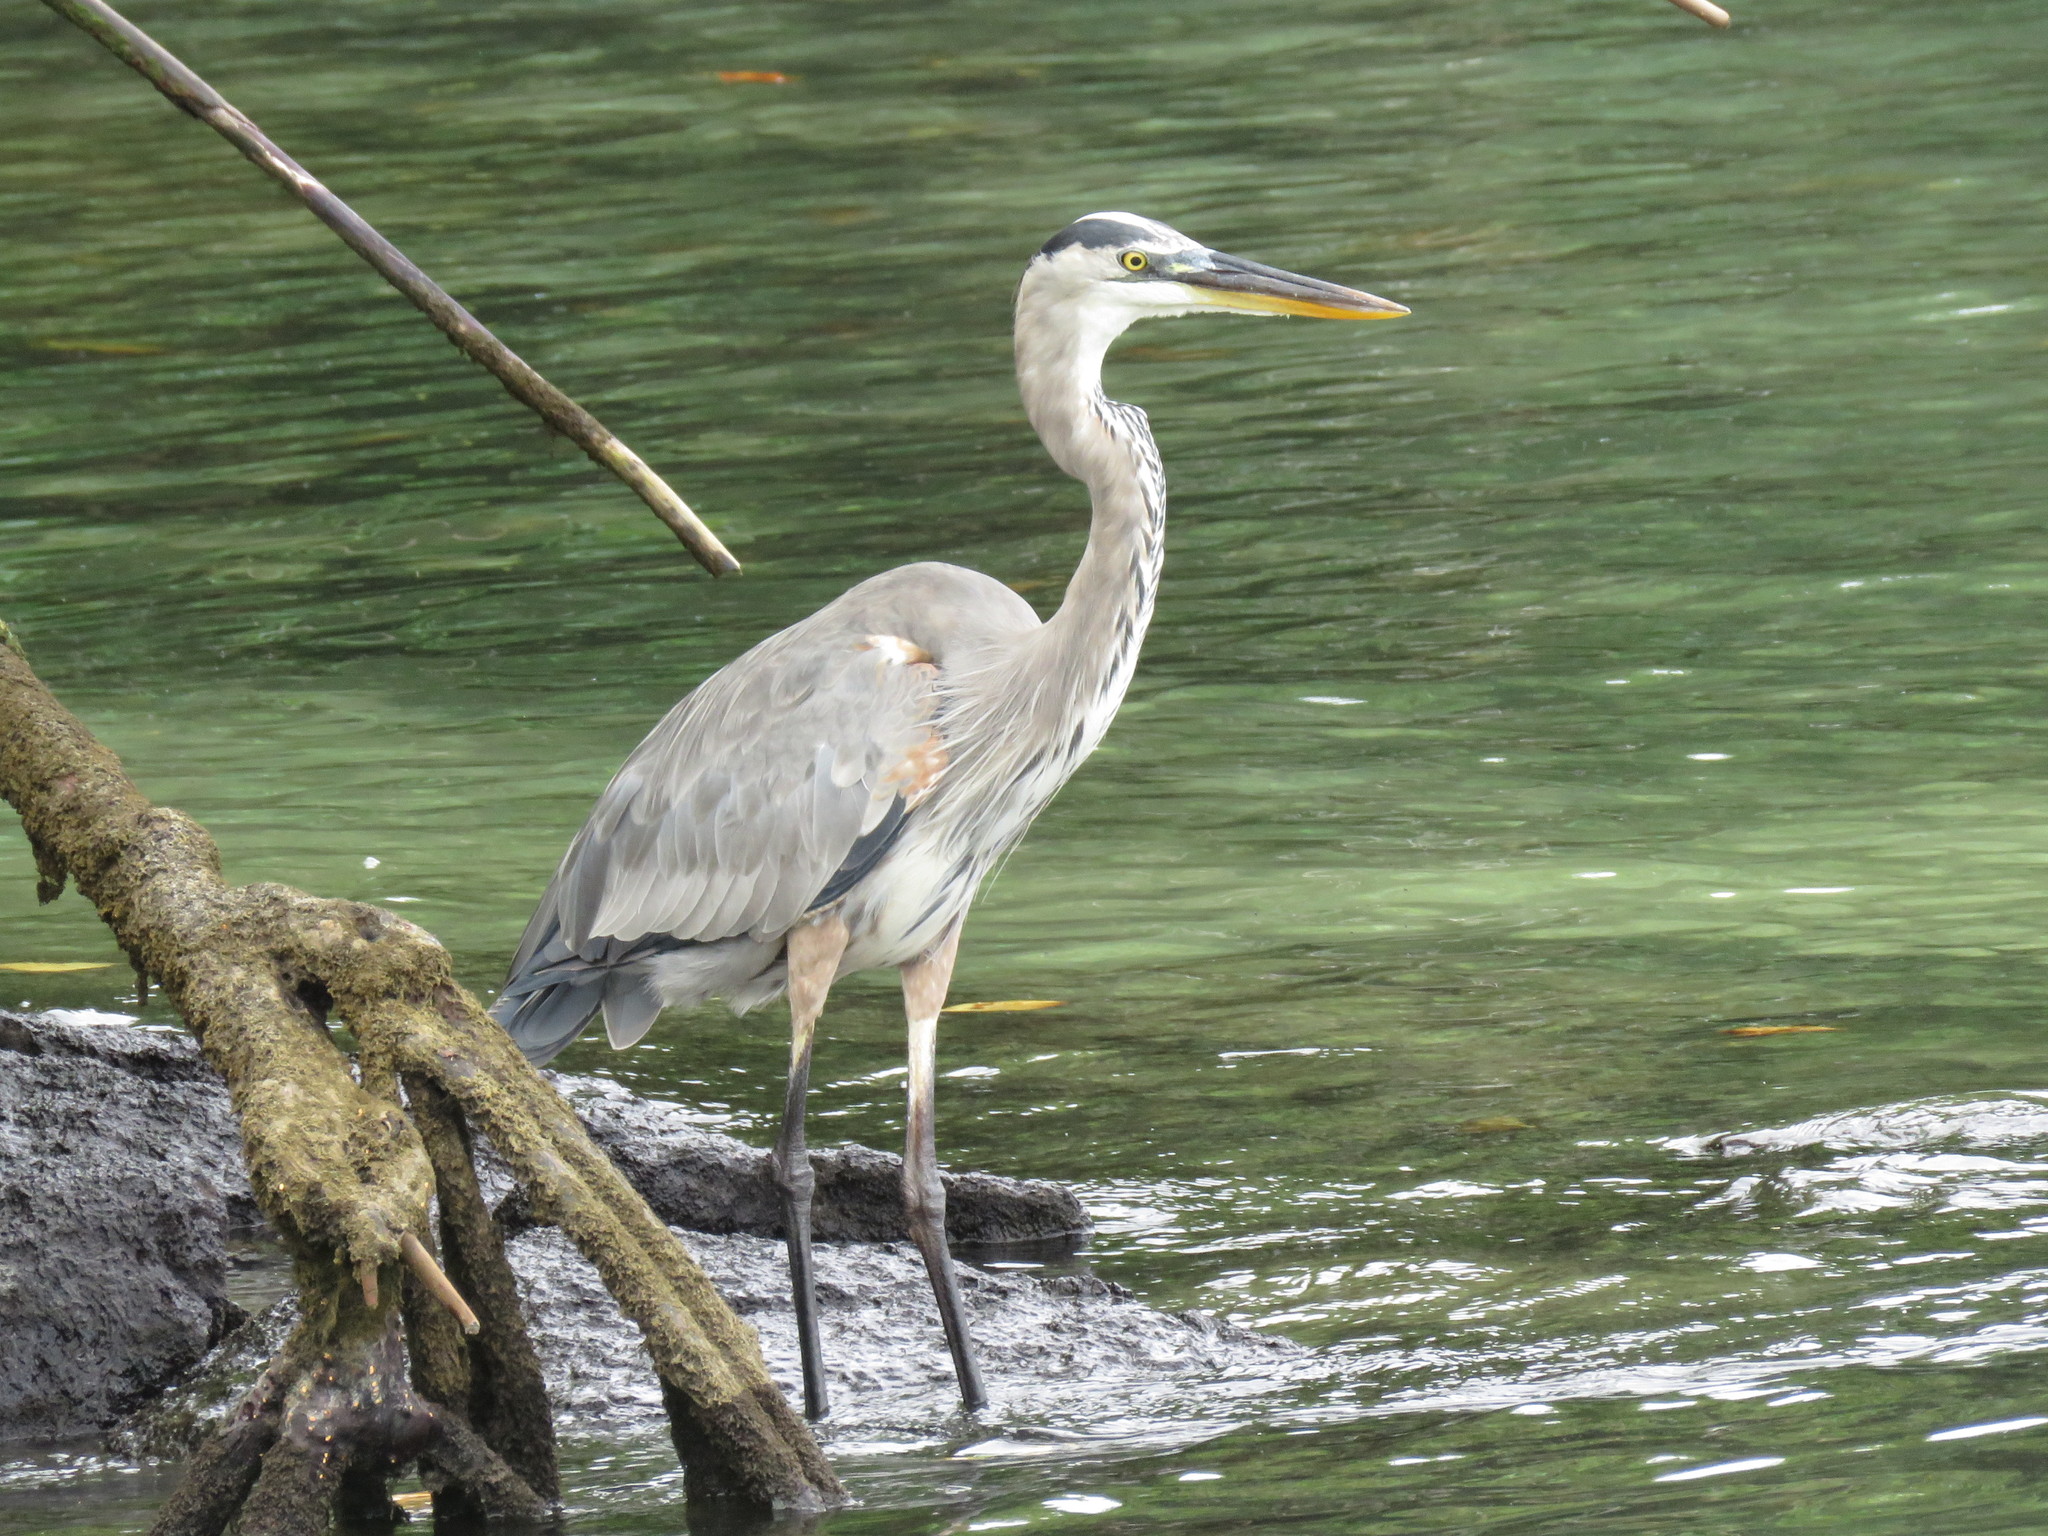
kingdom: Animalia
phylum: Chordata
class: Aves
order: Pelecaniformes
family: Ardeidae
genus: Ardea
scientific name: Ardea herodias
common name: Great blue heron
